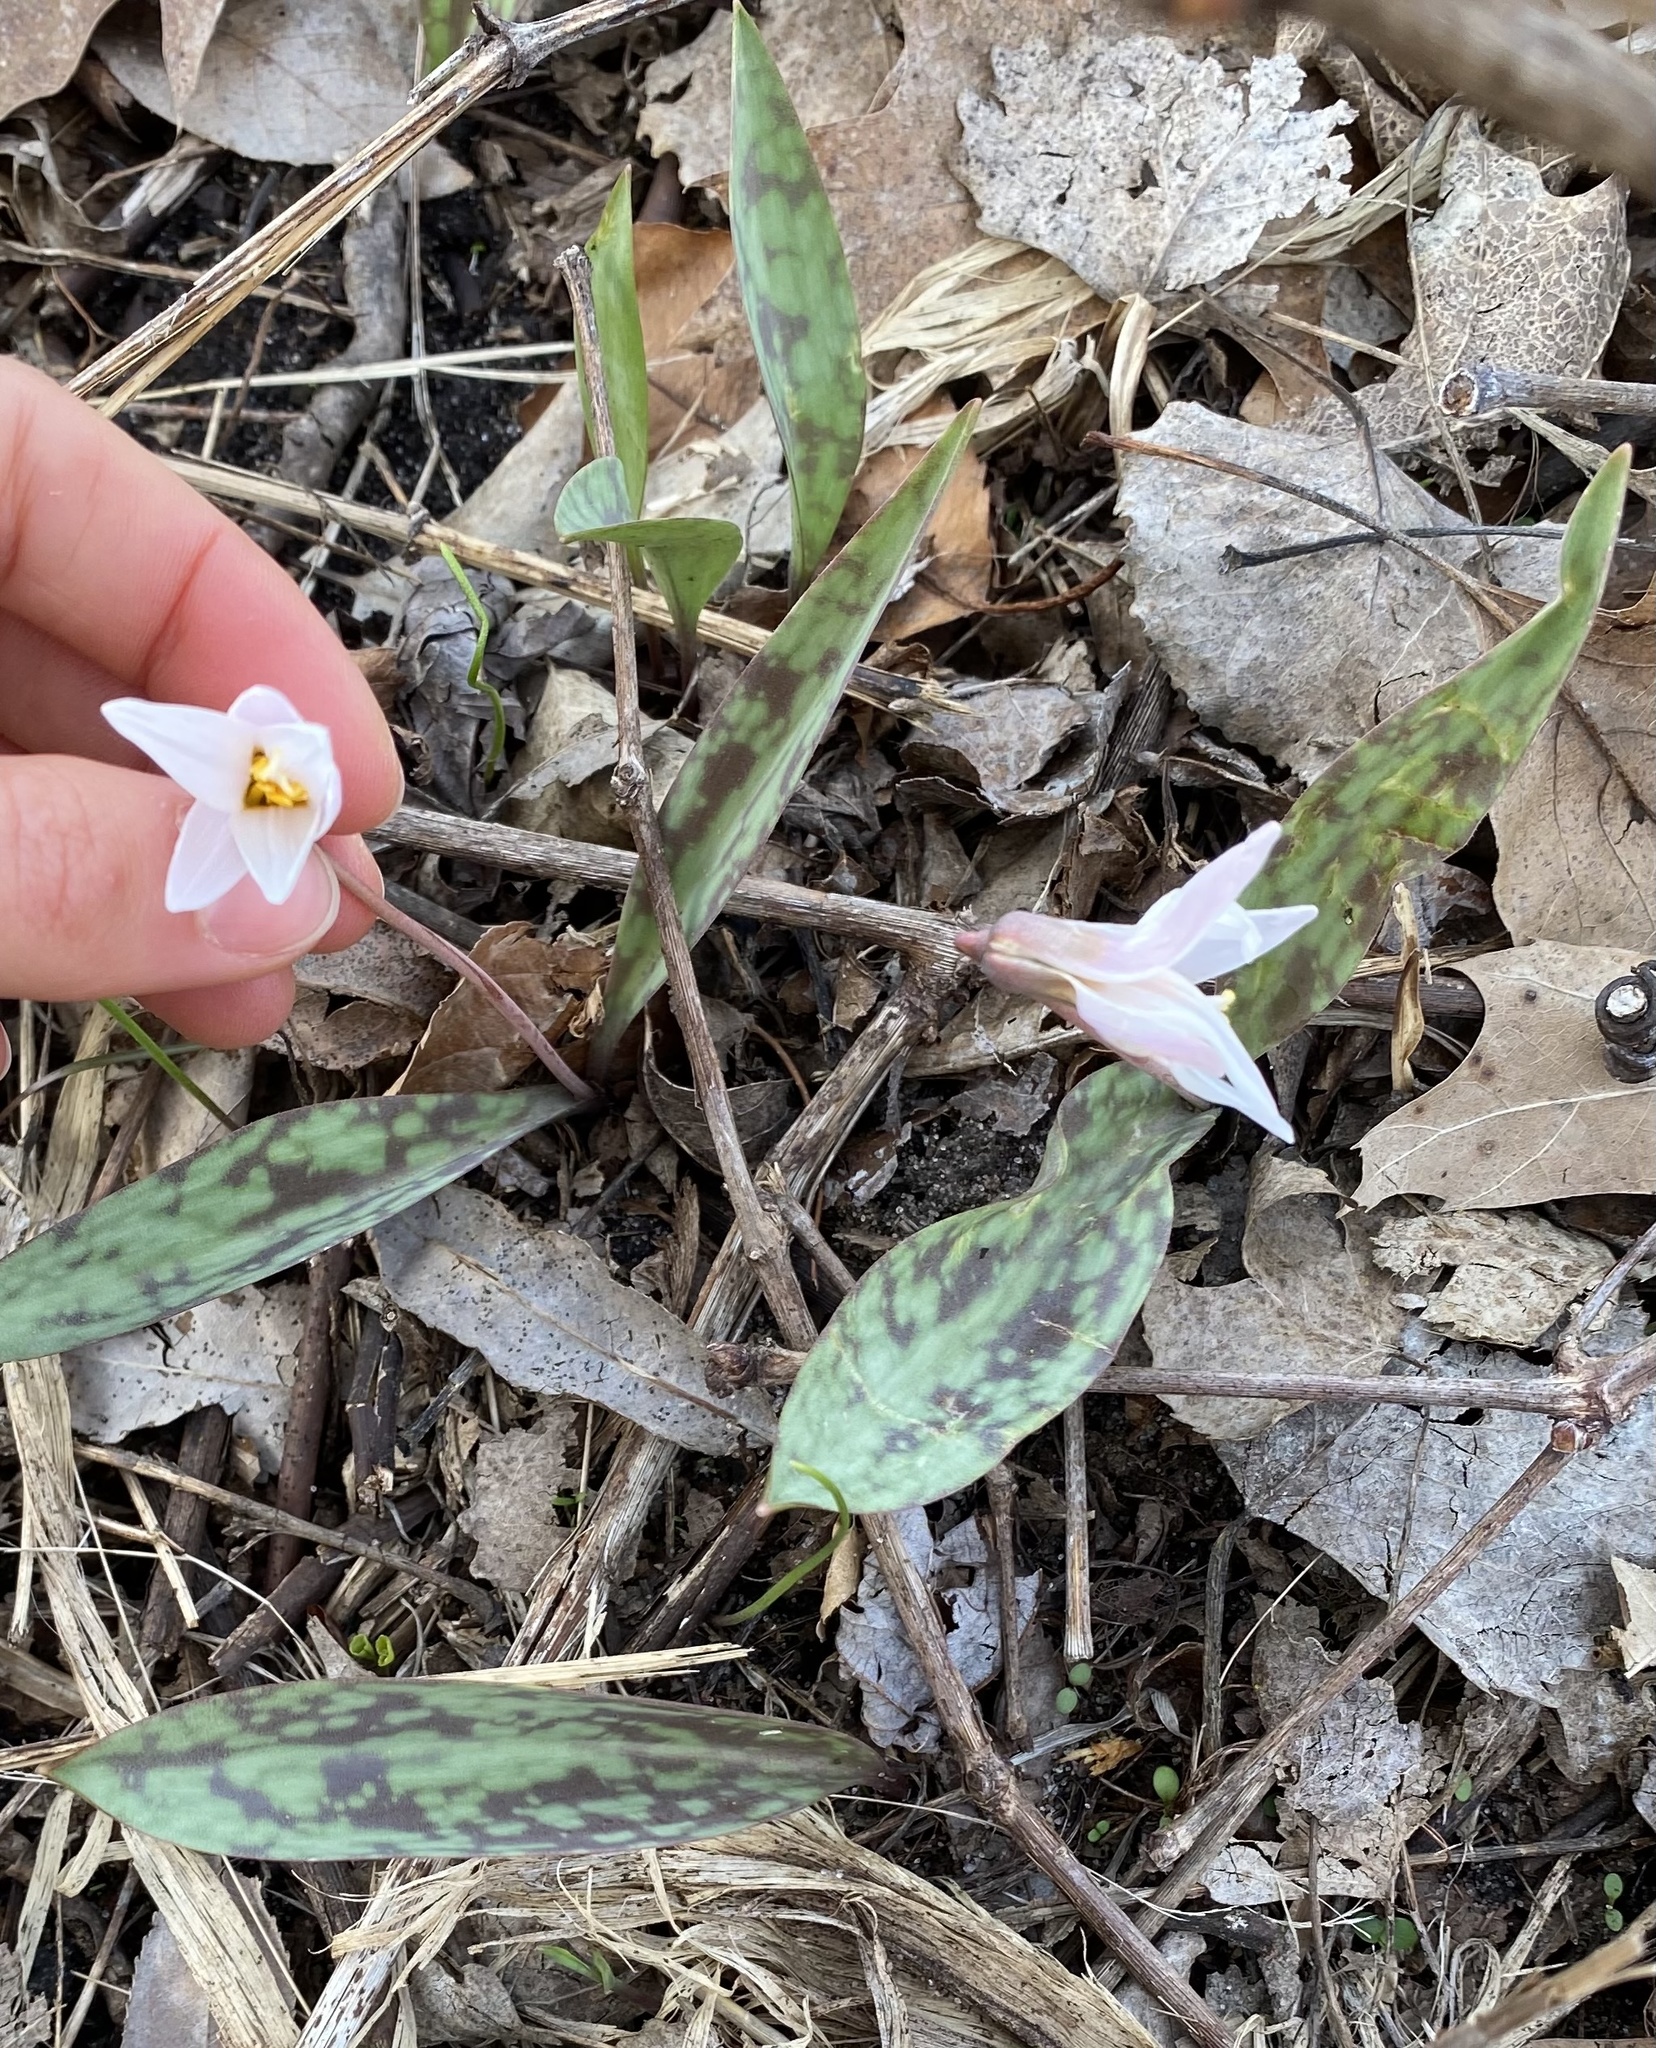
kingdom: Plantae
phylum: Tracheophyta
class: Liliopsida
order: Liliales
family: Liliaceae
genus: Erythronium
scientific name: Erythronium albidum
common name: White trout-lily
